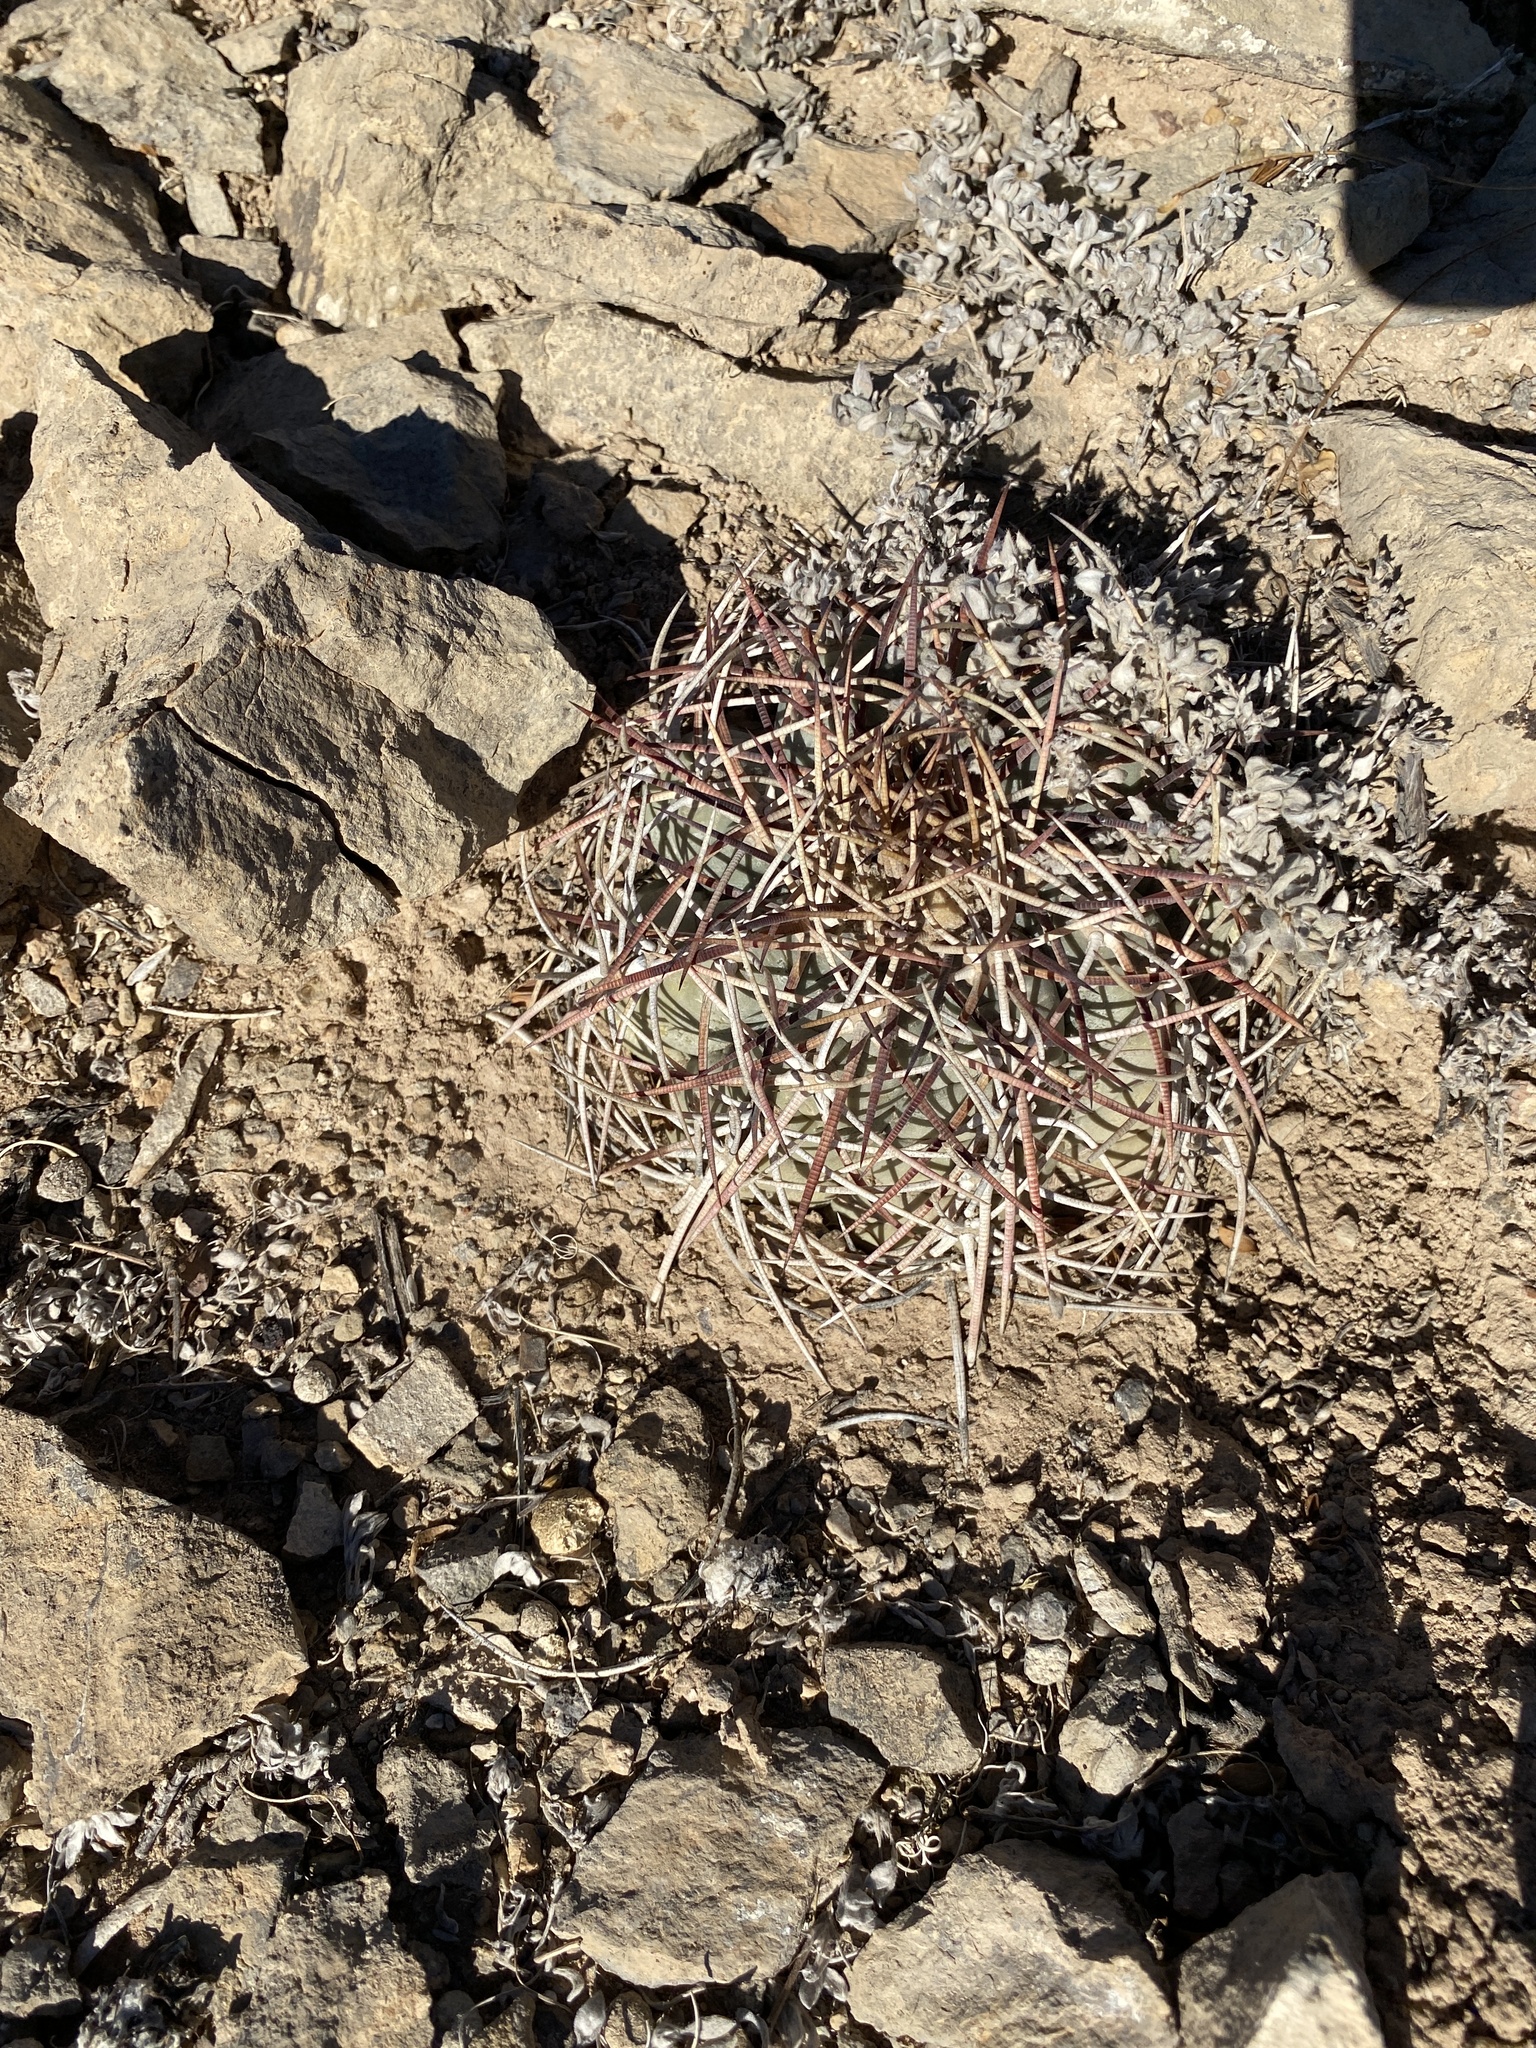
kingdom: Plantae
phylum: Tracheophyta
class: Magnoliopsida
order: Caryophyllales
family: Cactaceae
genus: Echinocactus
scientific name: Echinocactus horizonthalonius
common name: Devilshead
